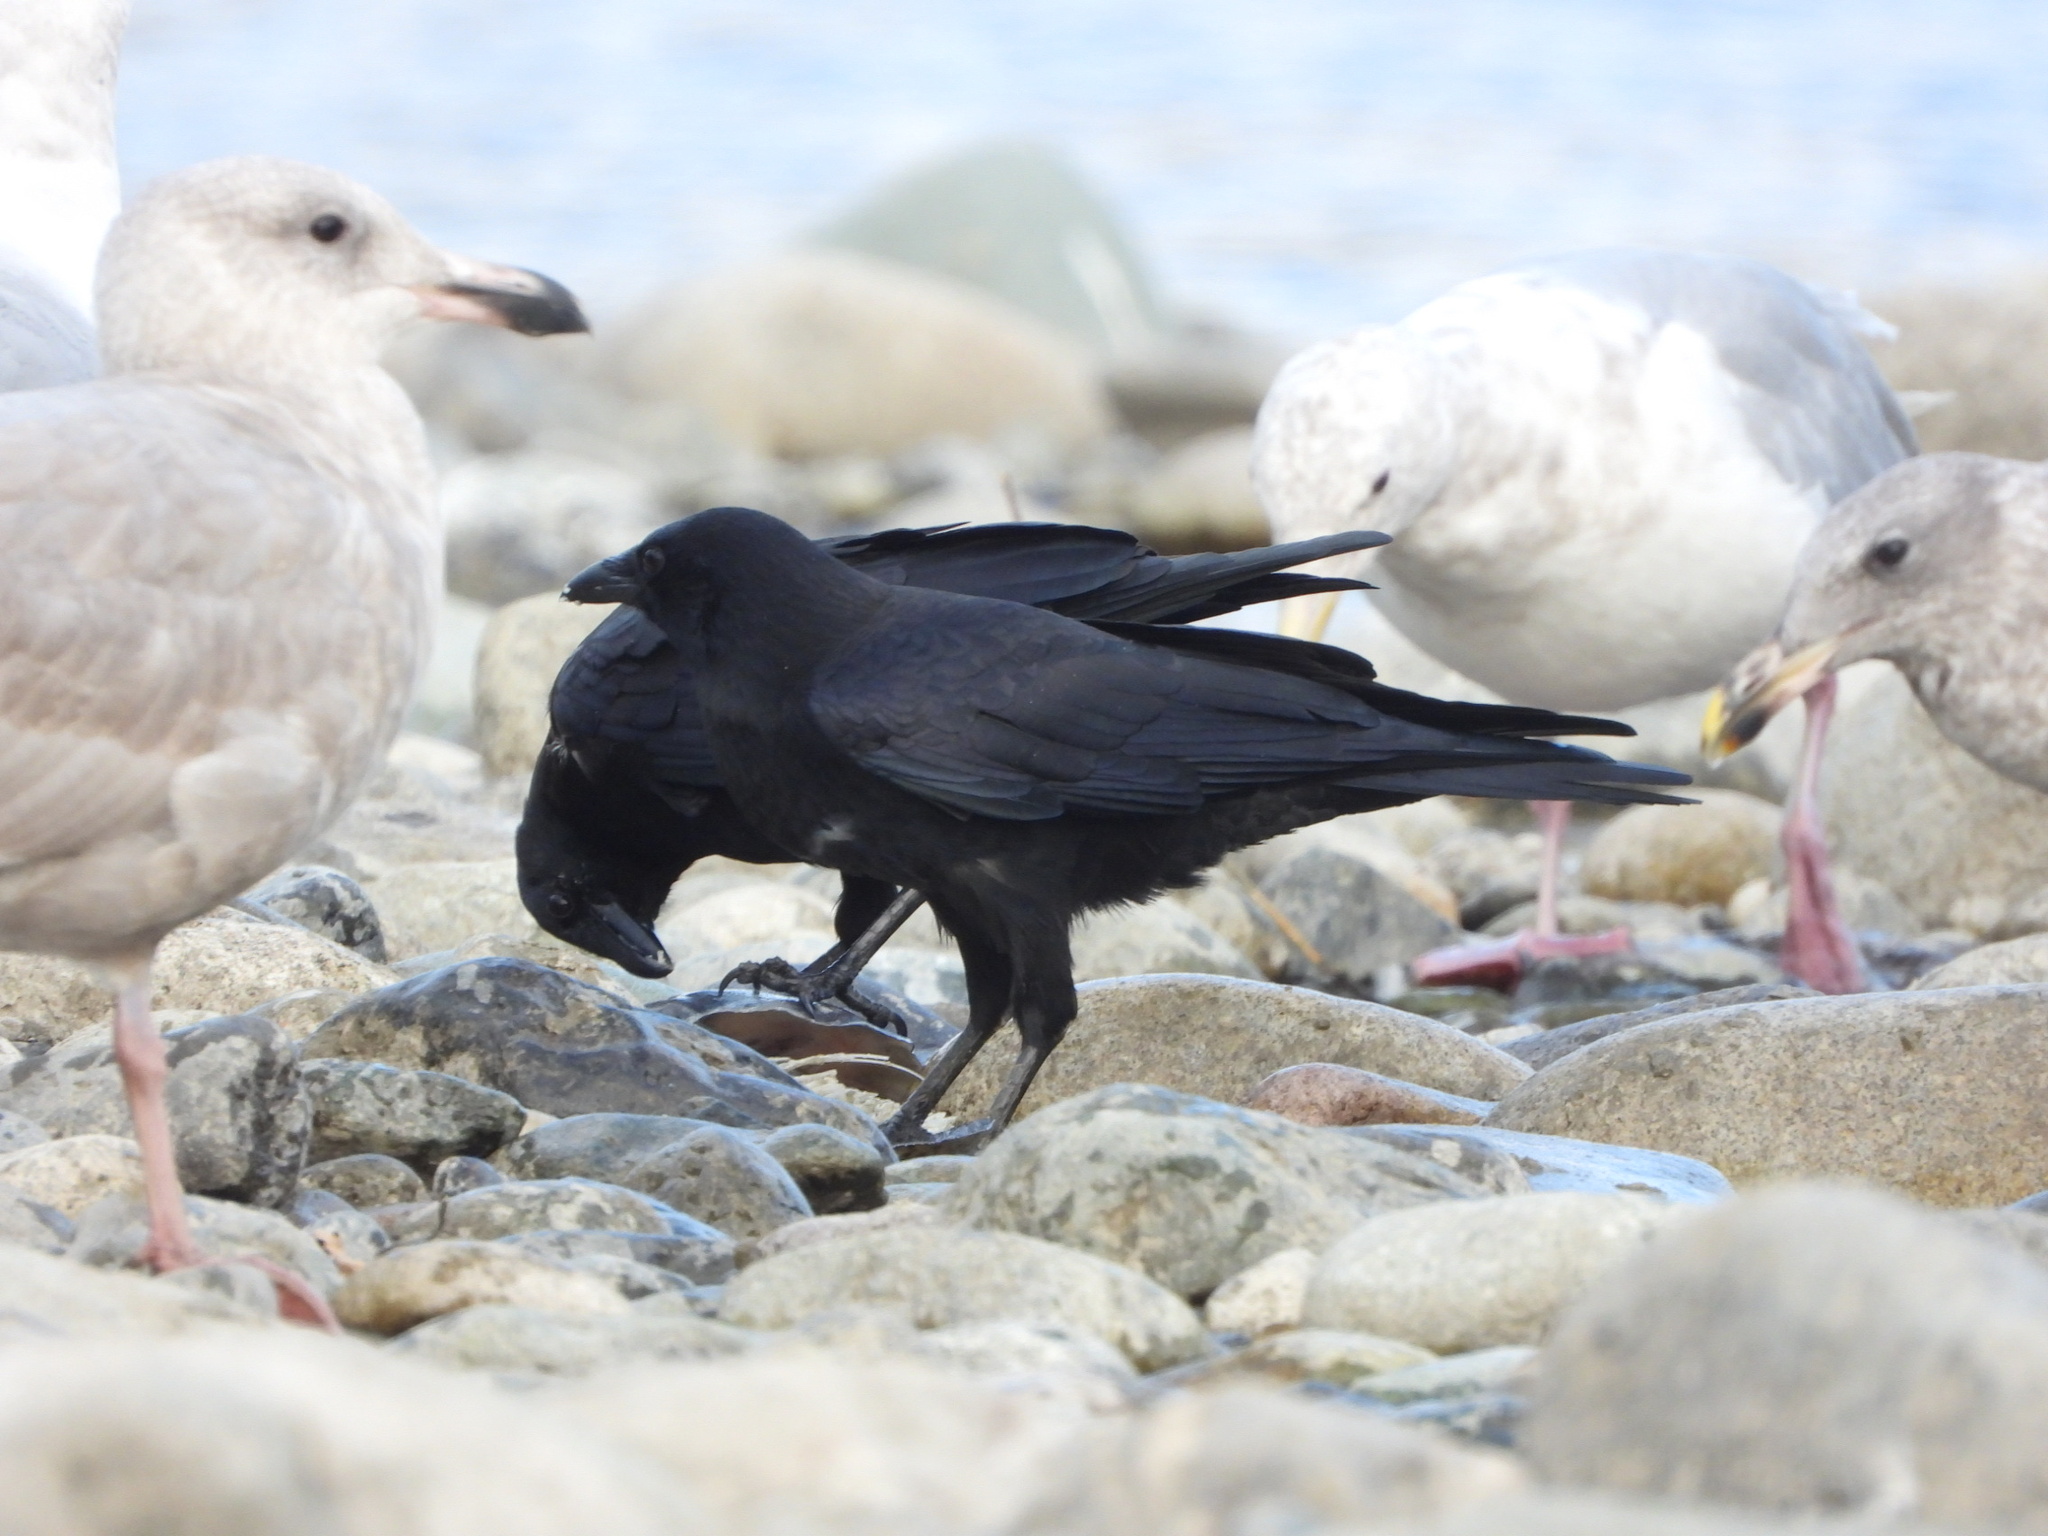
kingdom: Animalia
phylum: Chordata
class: Aves
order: Passeriformes
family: Corvidae
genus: Corvus
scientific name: Corvus brachyrhynchos
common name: American crow
